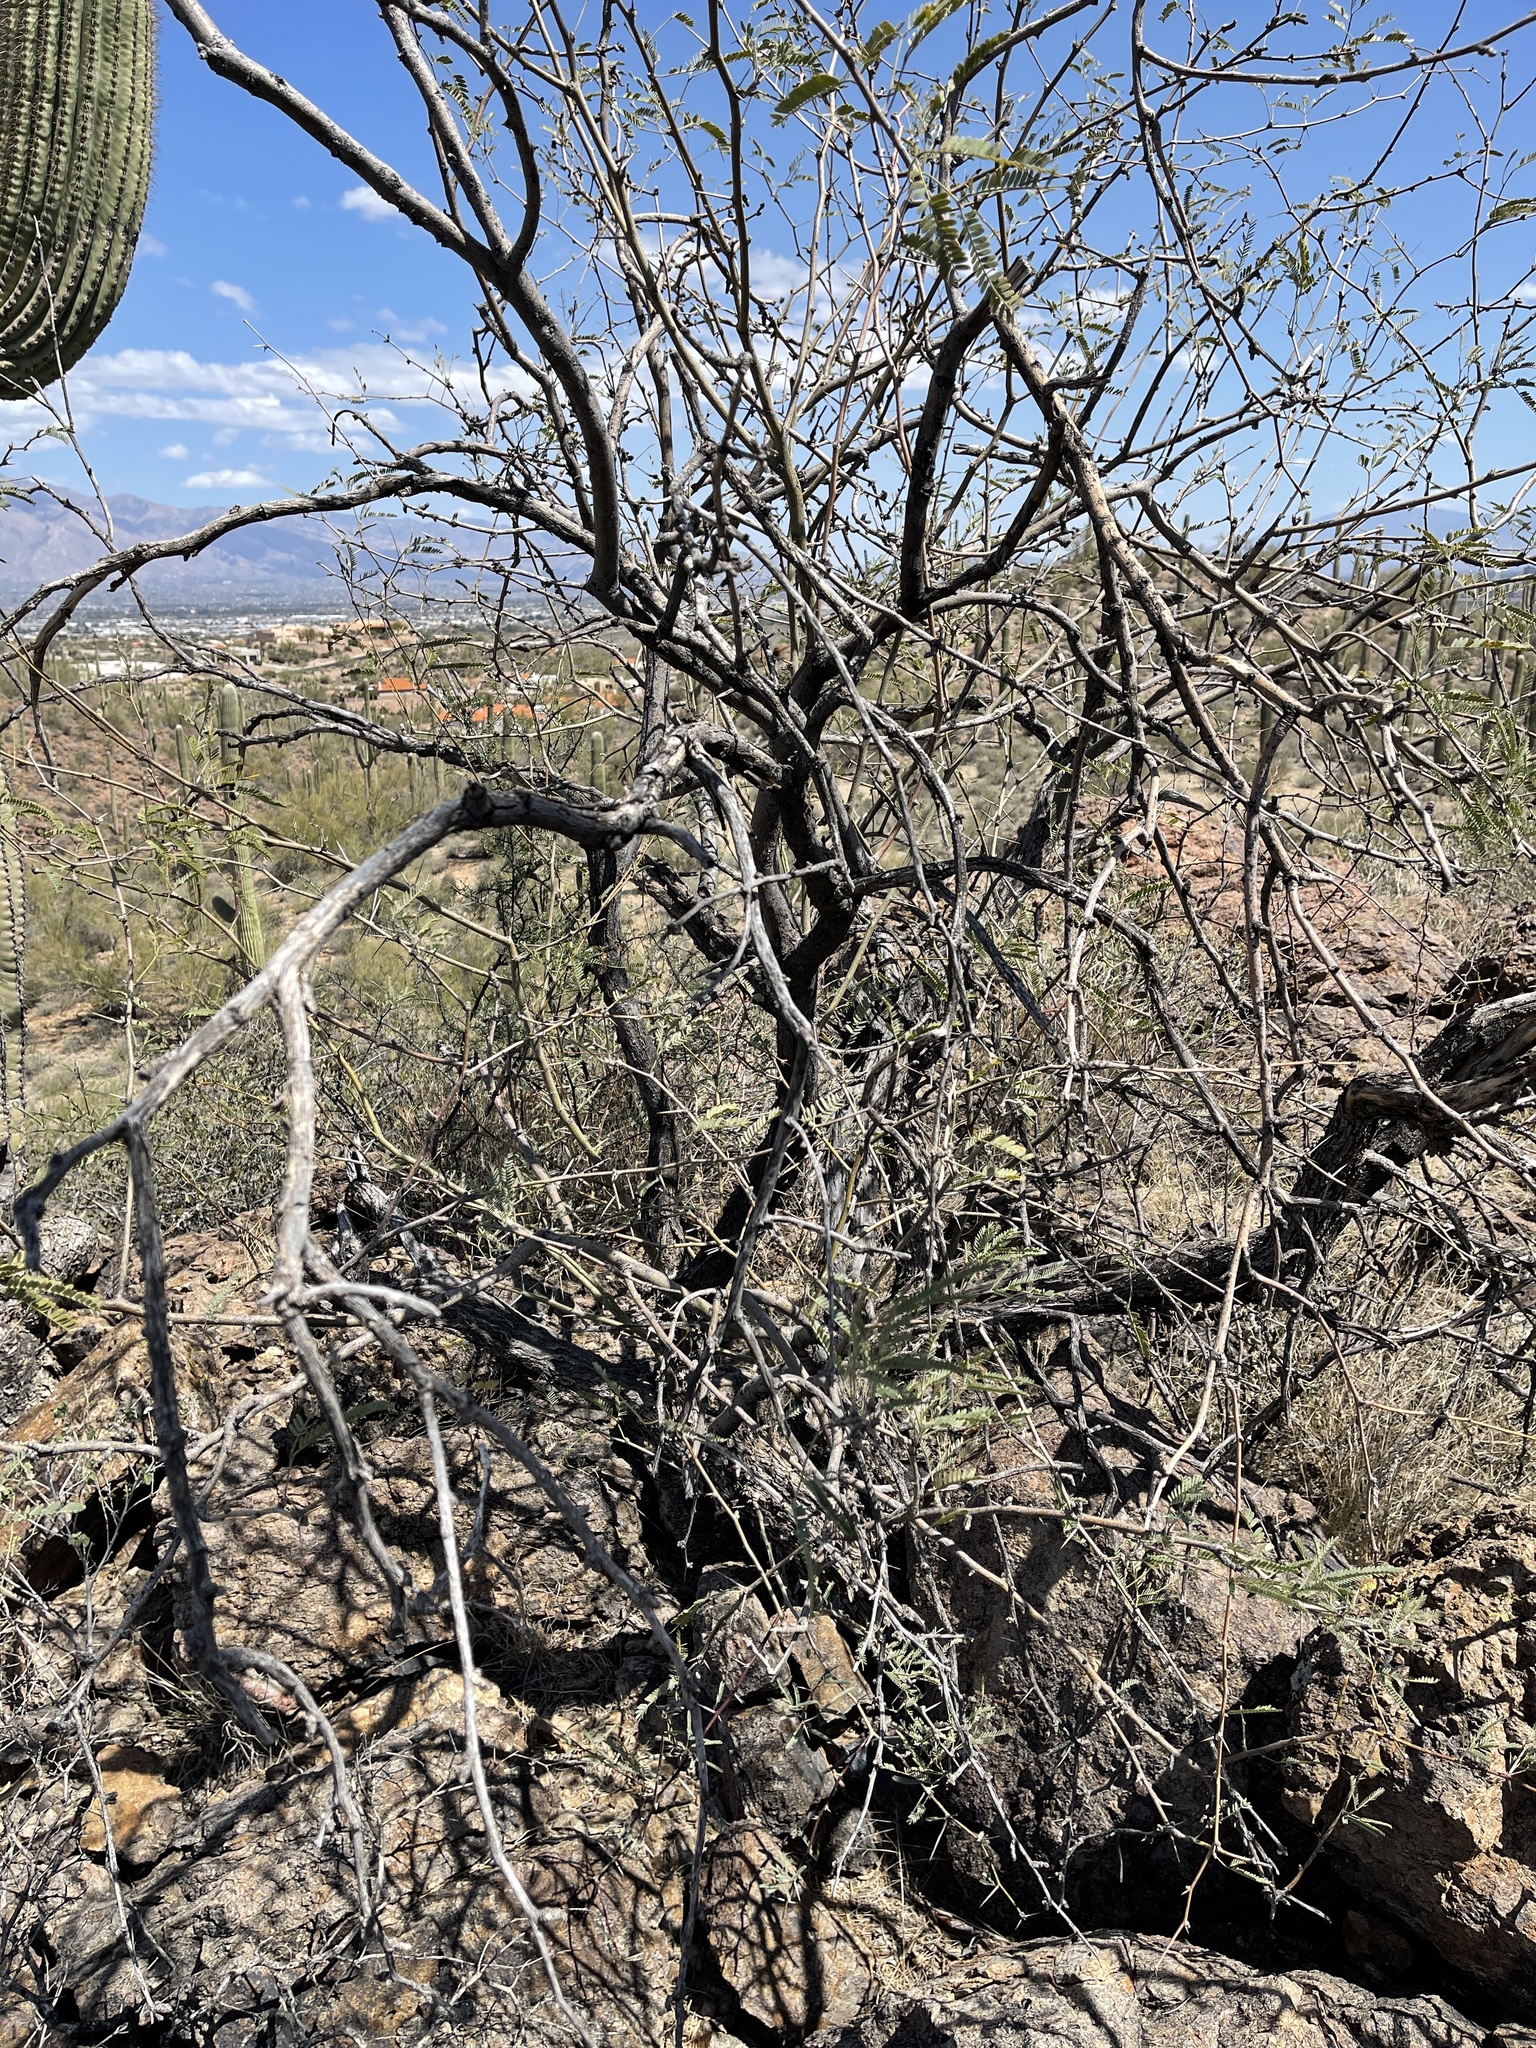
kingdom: Plantae
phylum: Tracheophyta
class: Magnoliopsida
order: Fabales
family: Fabaceae
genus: Prosopis
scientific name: Prosopis velutina
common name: Velvet mesquite
